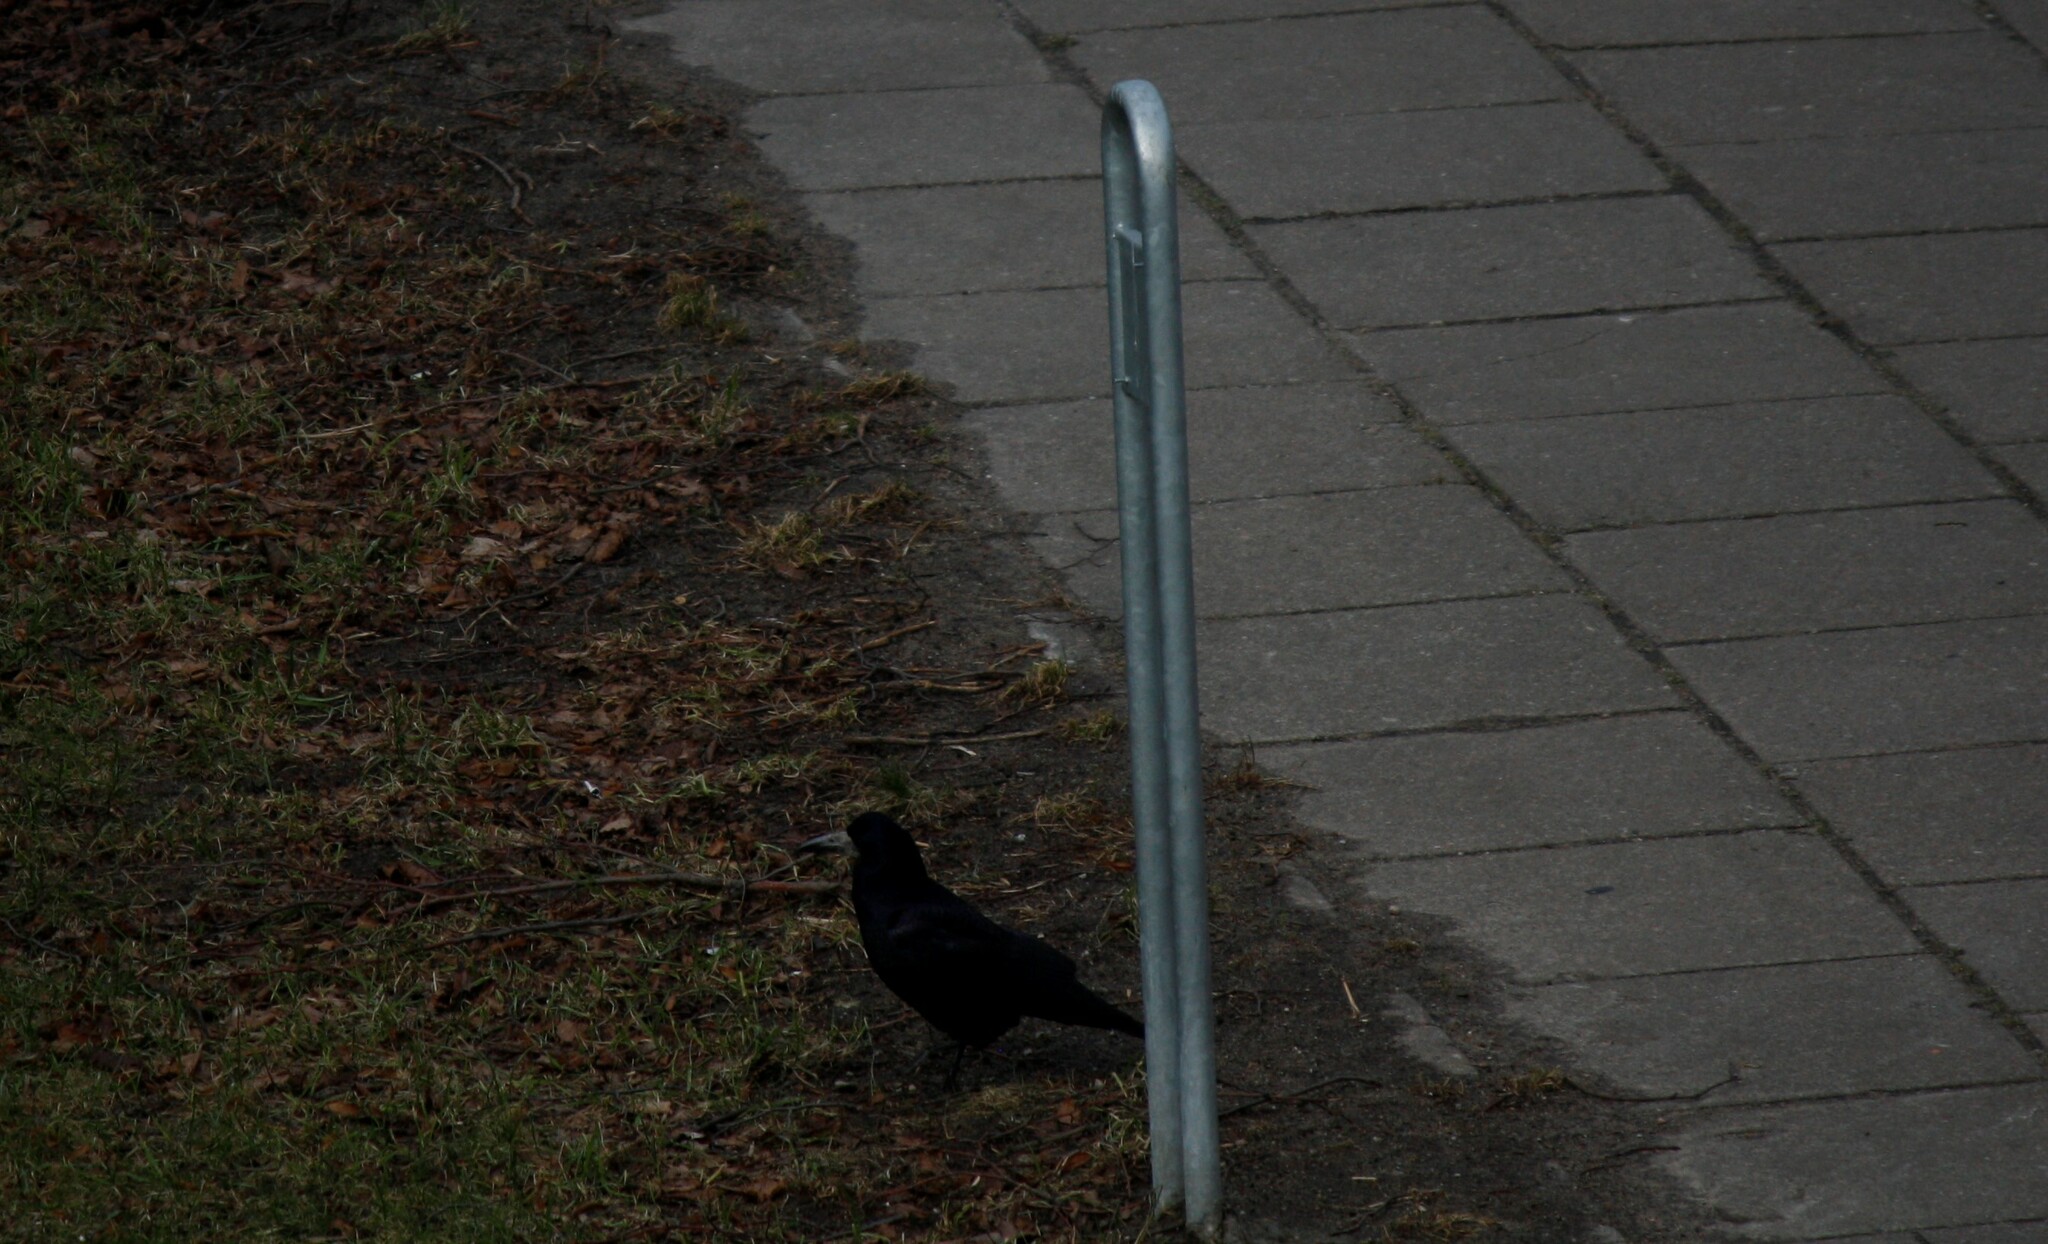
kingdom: Animalia
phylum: Chordata
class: Aves
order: Passeriformes
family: Corvidae
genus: Corvus
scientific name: Corvus frugilegus
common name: Rook
